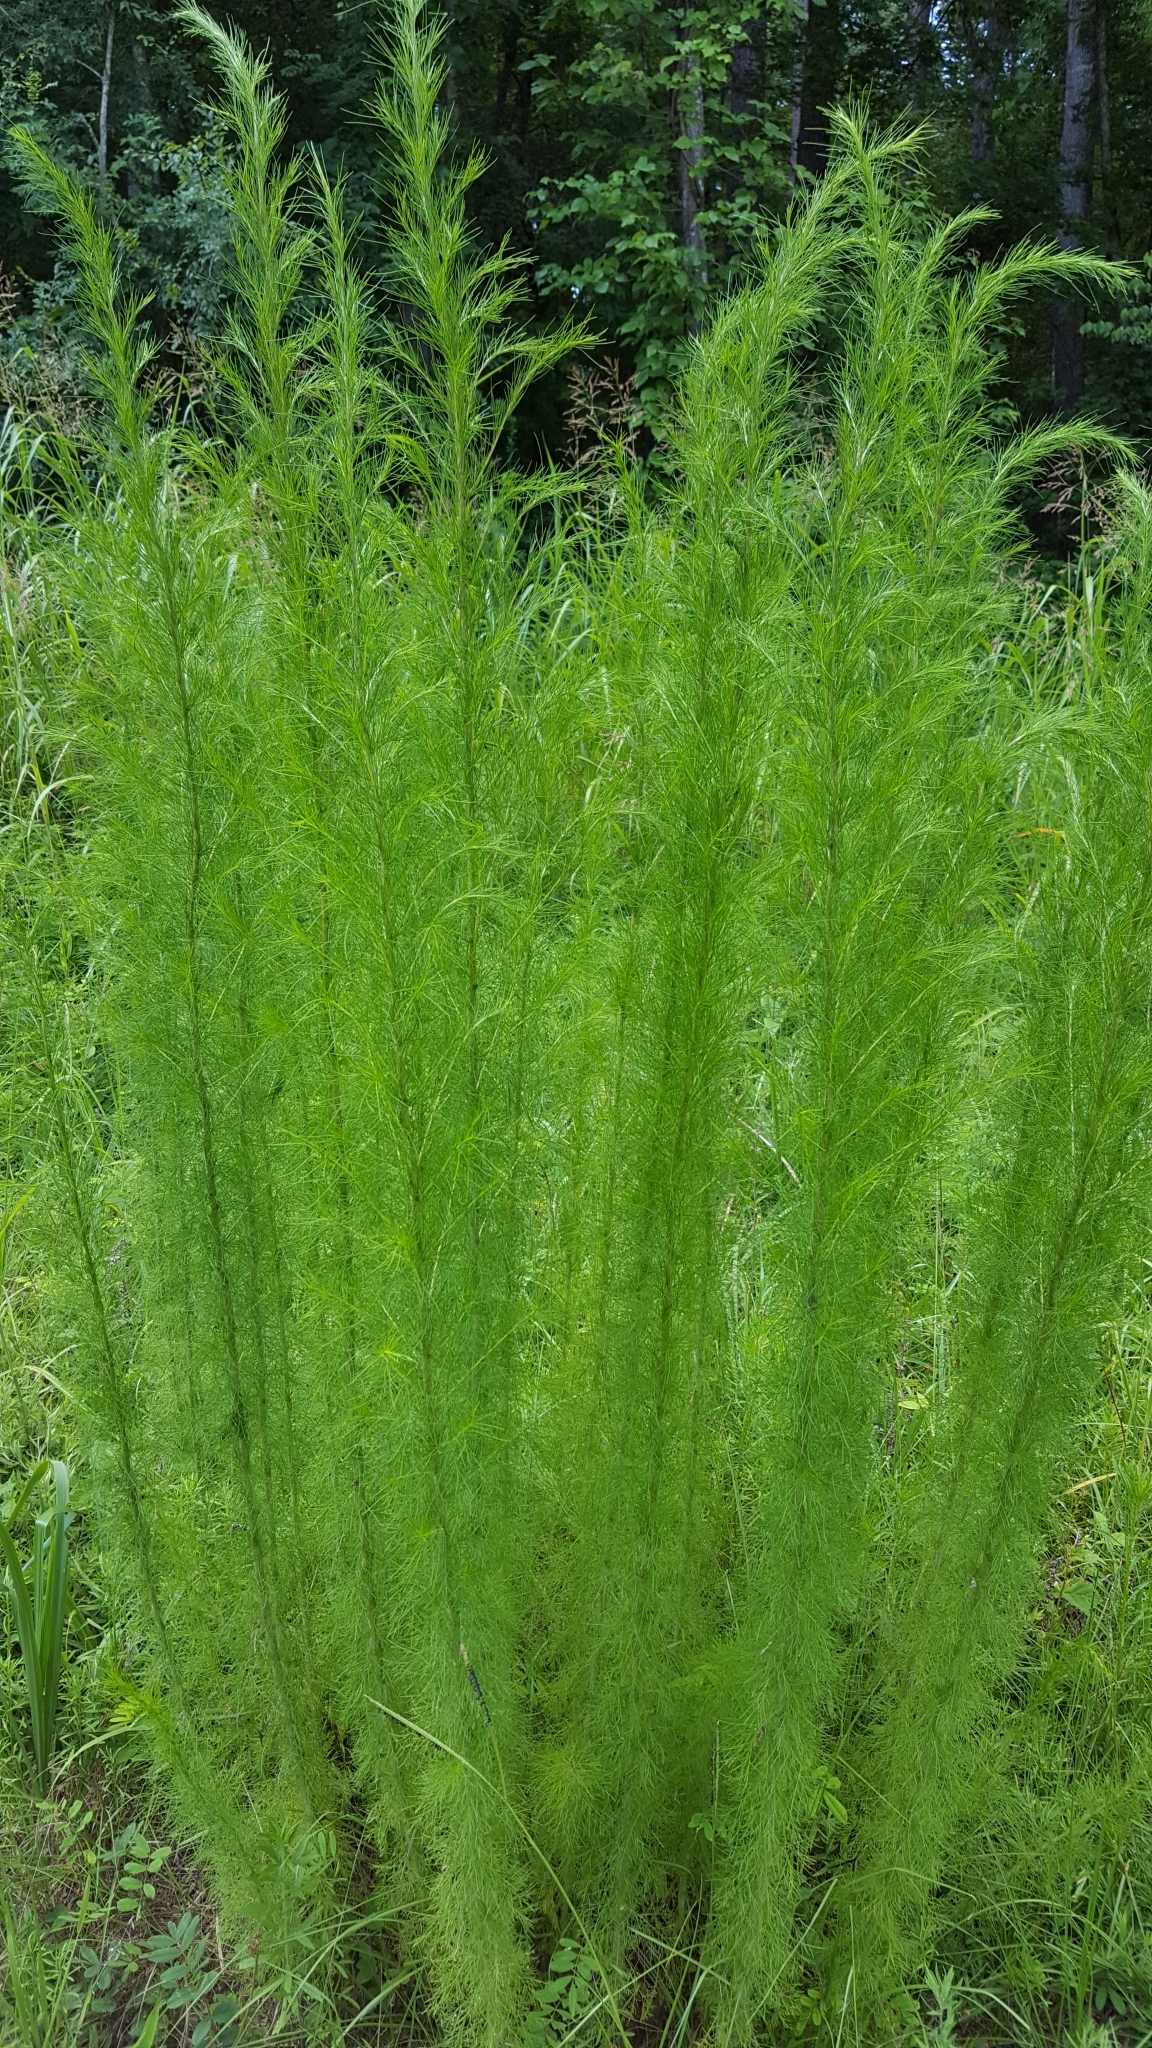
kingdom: Plantae
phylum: Tracheophyta
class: Magnoliopsida
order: Asterales
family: Asteraceae
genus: Eupatorium
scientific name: Eupatorium capillifolium
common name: Dog-fennel
